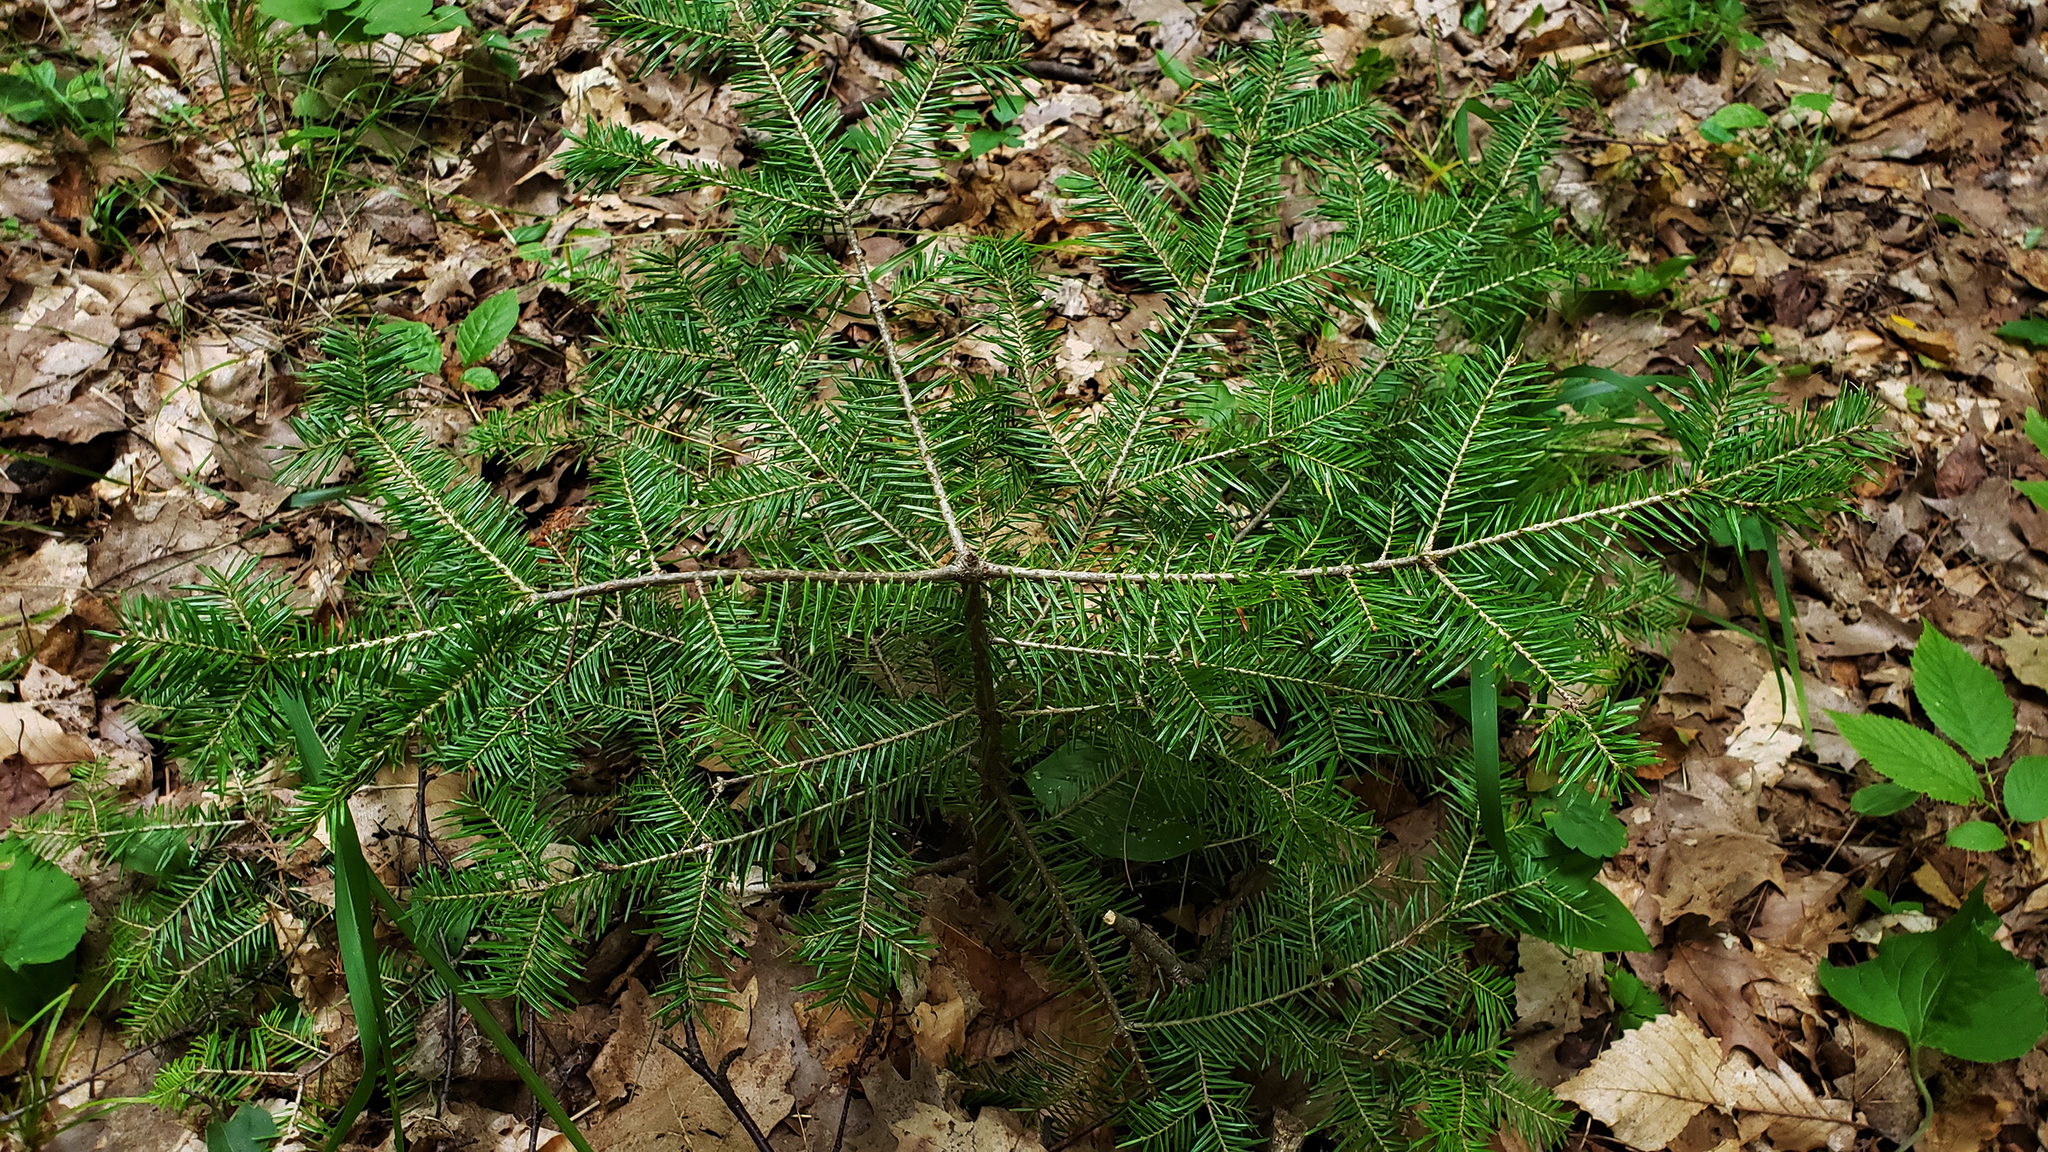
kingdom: Plantae
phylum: Tracheophyta
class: Pinopsida
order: Pinales
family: Pinaceae
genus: Abies
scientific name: Abies balsamea
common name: Balsam fir
